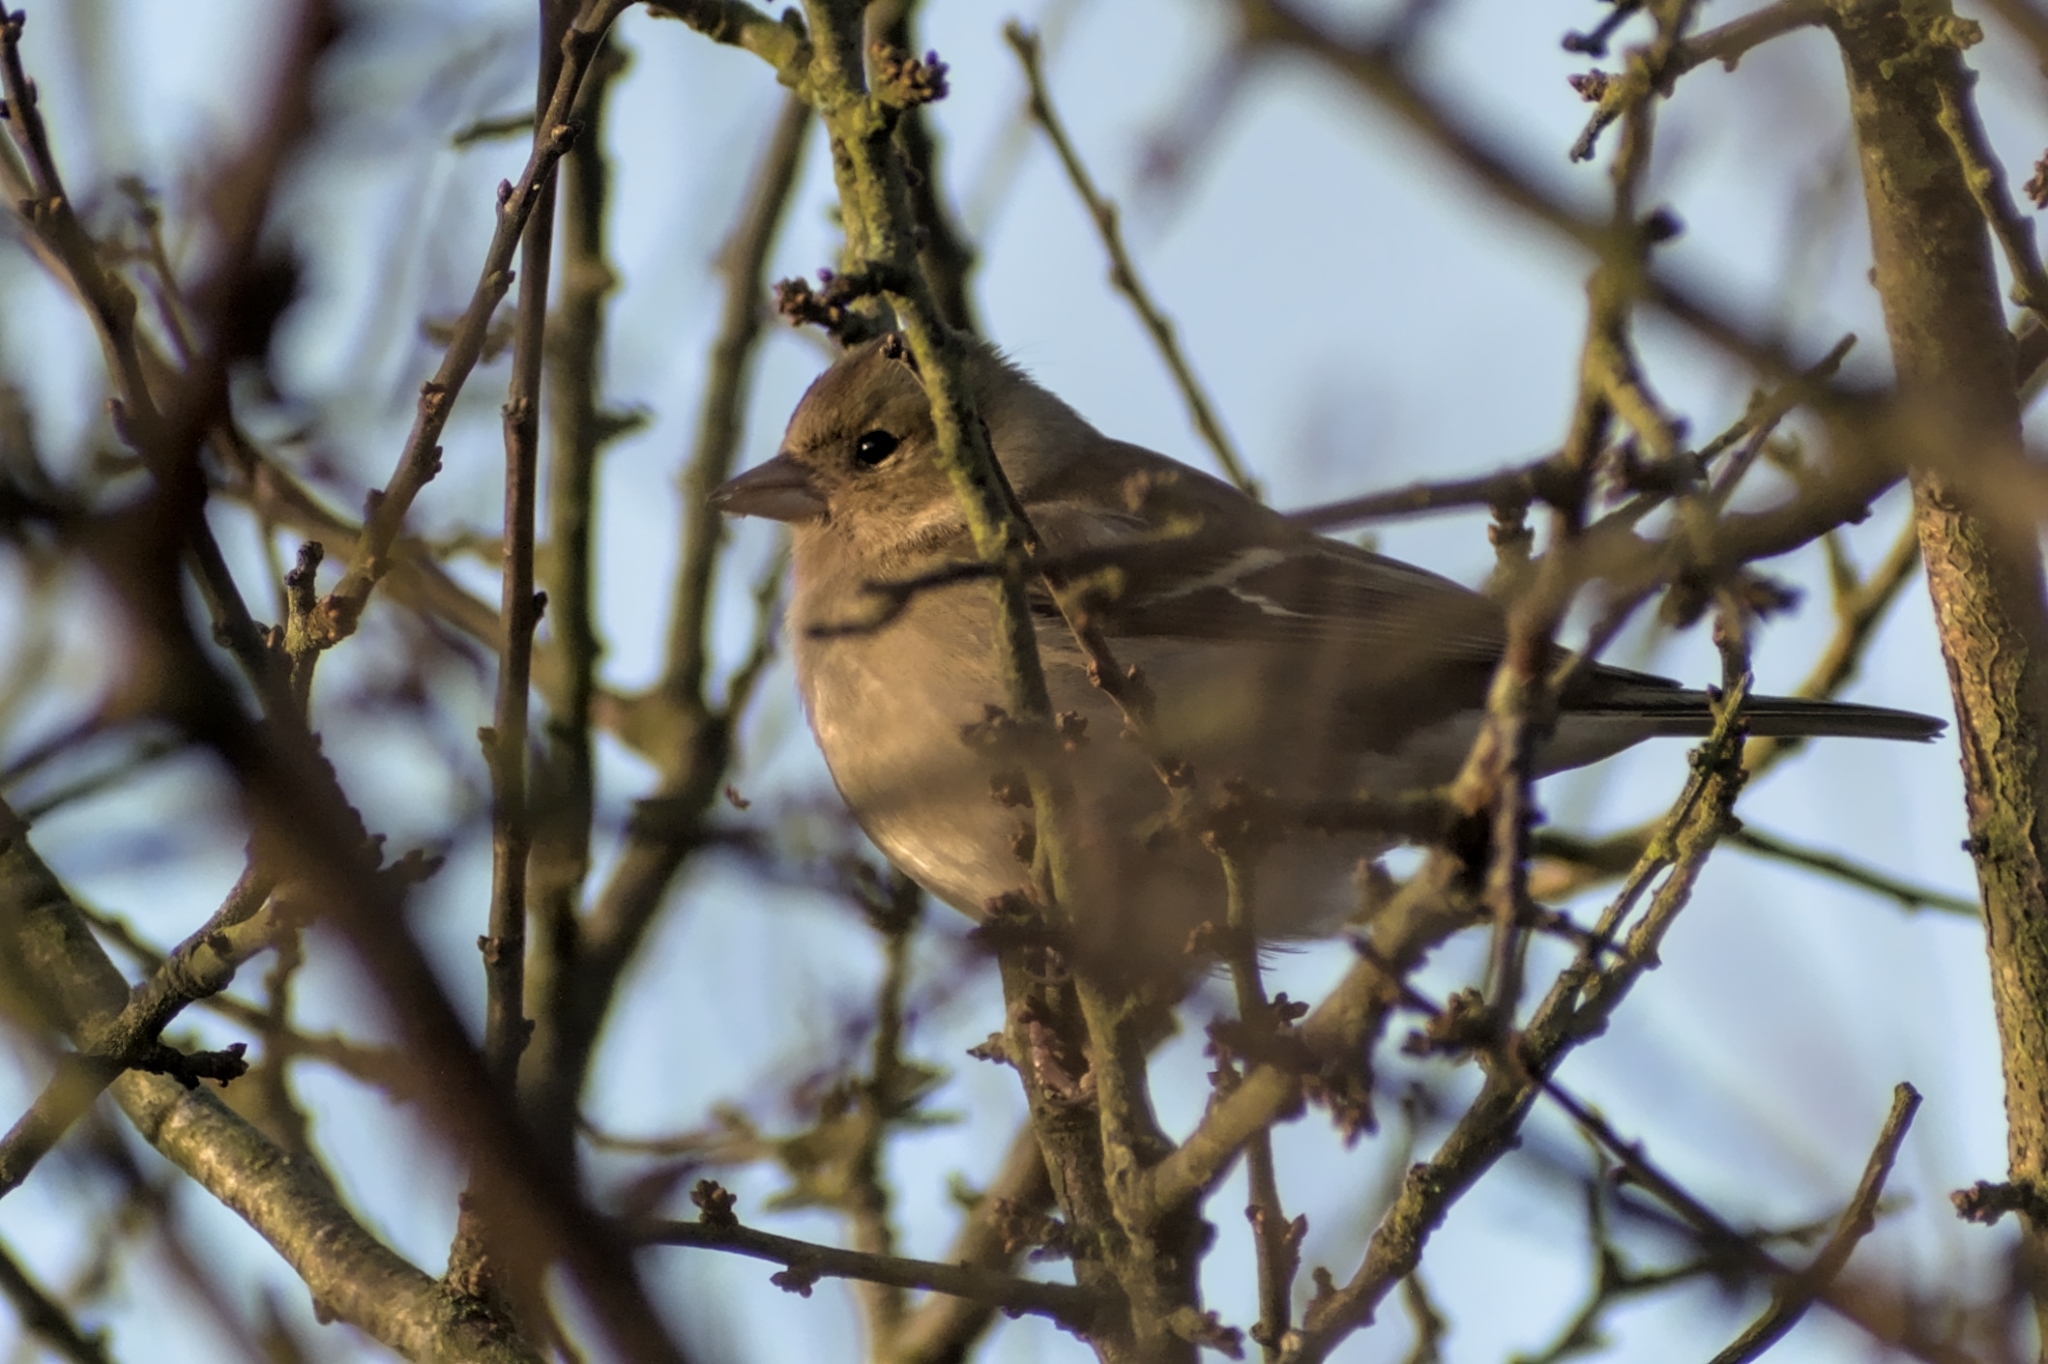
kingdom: Animalia
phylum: Chordata
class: Aves
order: Passeriformes
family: Fringillidae
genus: Fringilla
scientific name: Fringilla coelebs
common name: Common chaffinch
